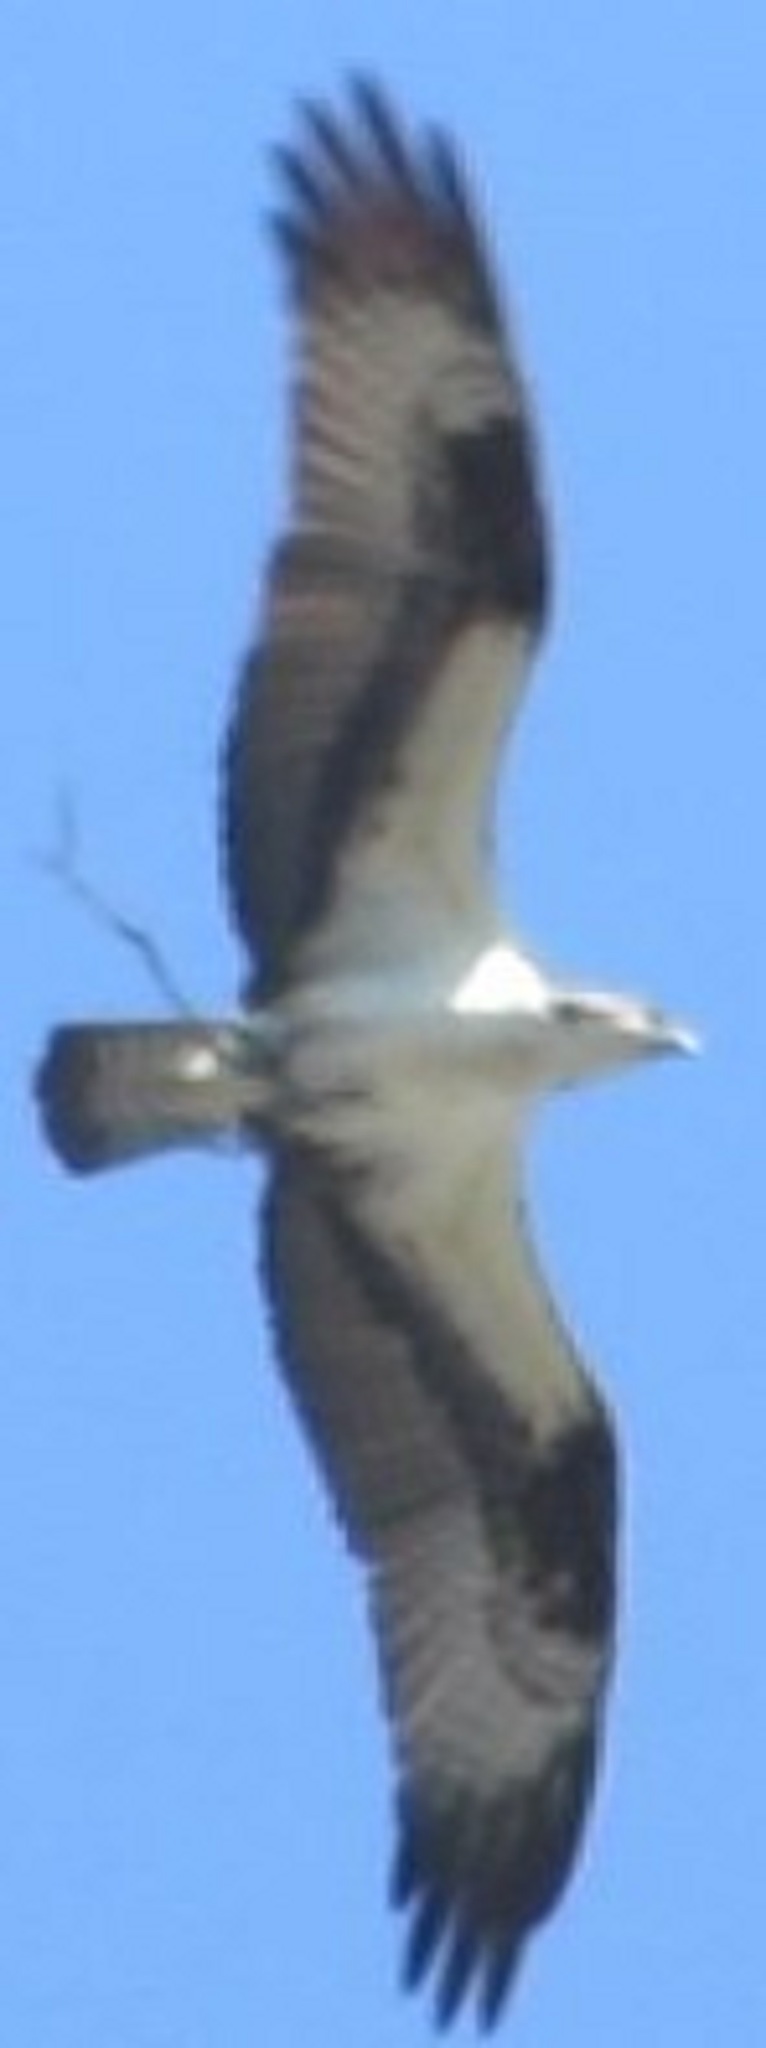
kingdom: Animalia
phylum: Chordata
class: Aves
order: Accipitriformes
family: Pandionidae
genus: Pandion
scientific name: Pandion haliaetus
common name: Osprey
